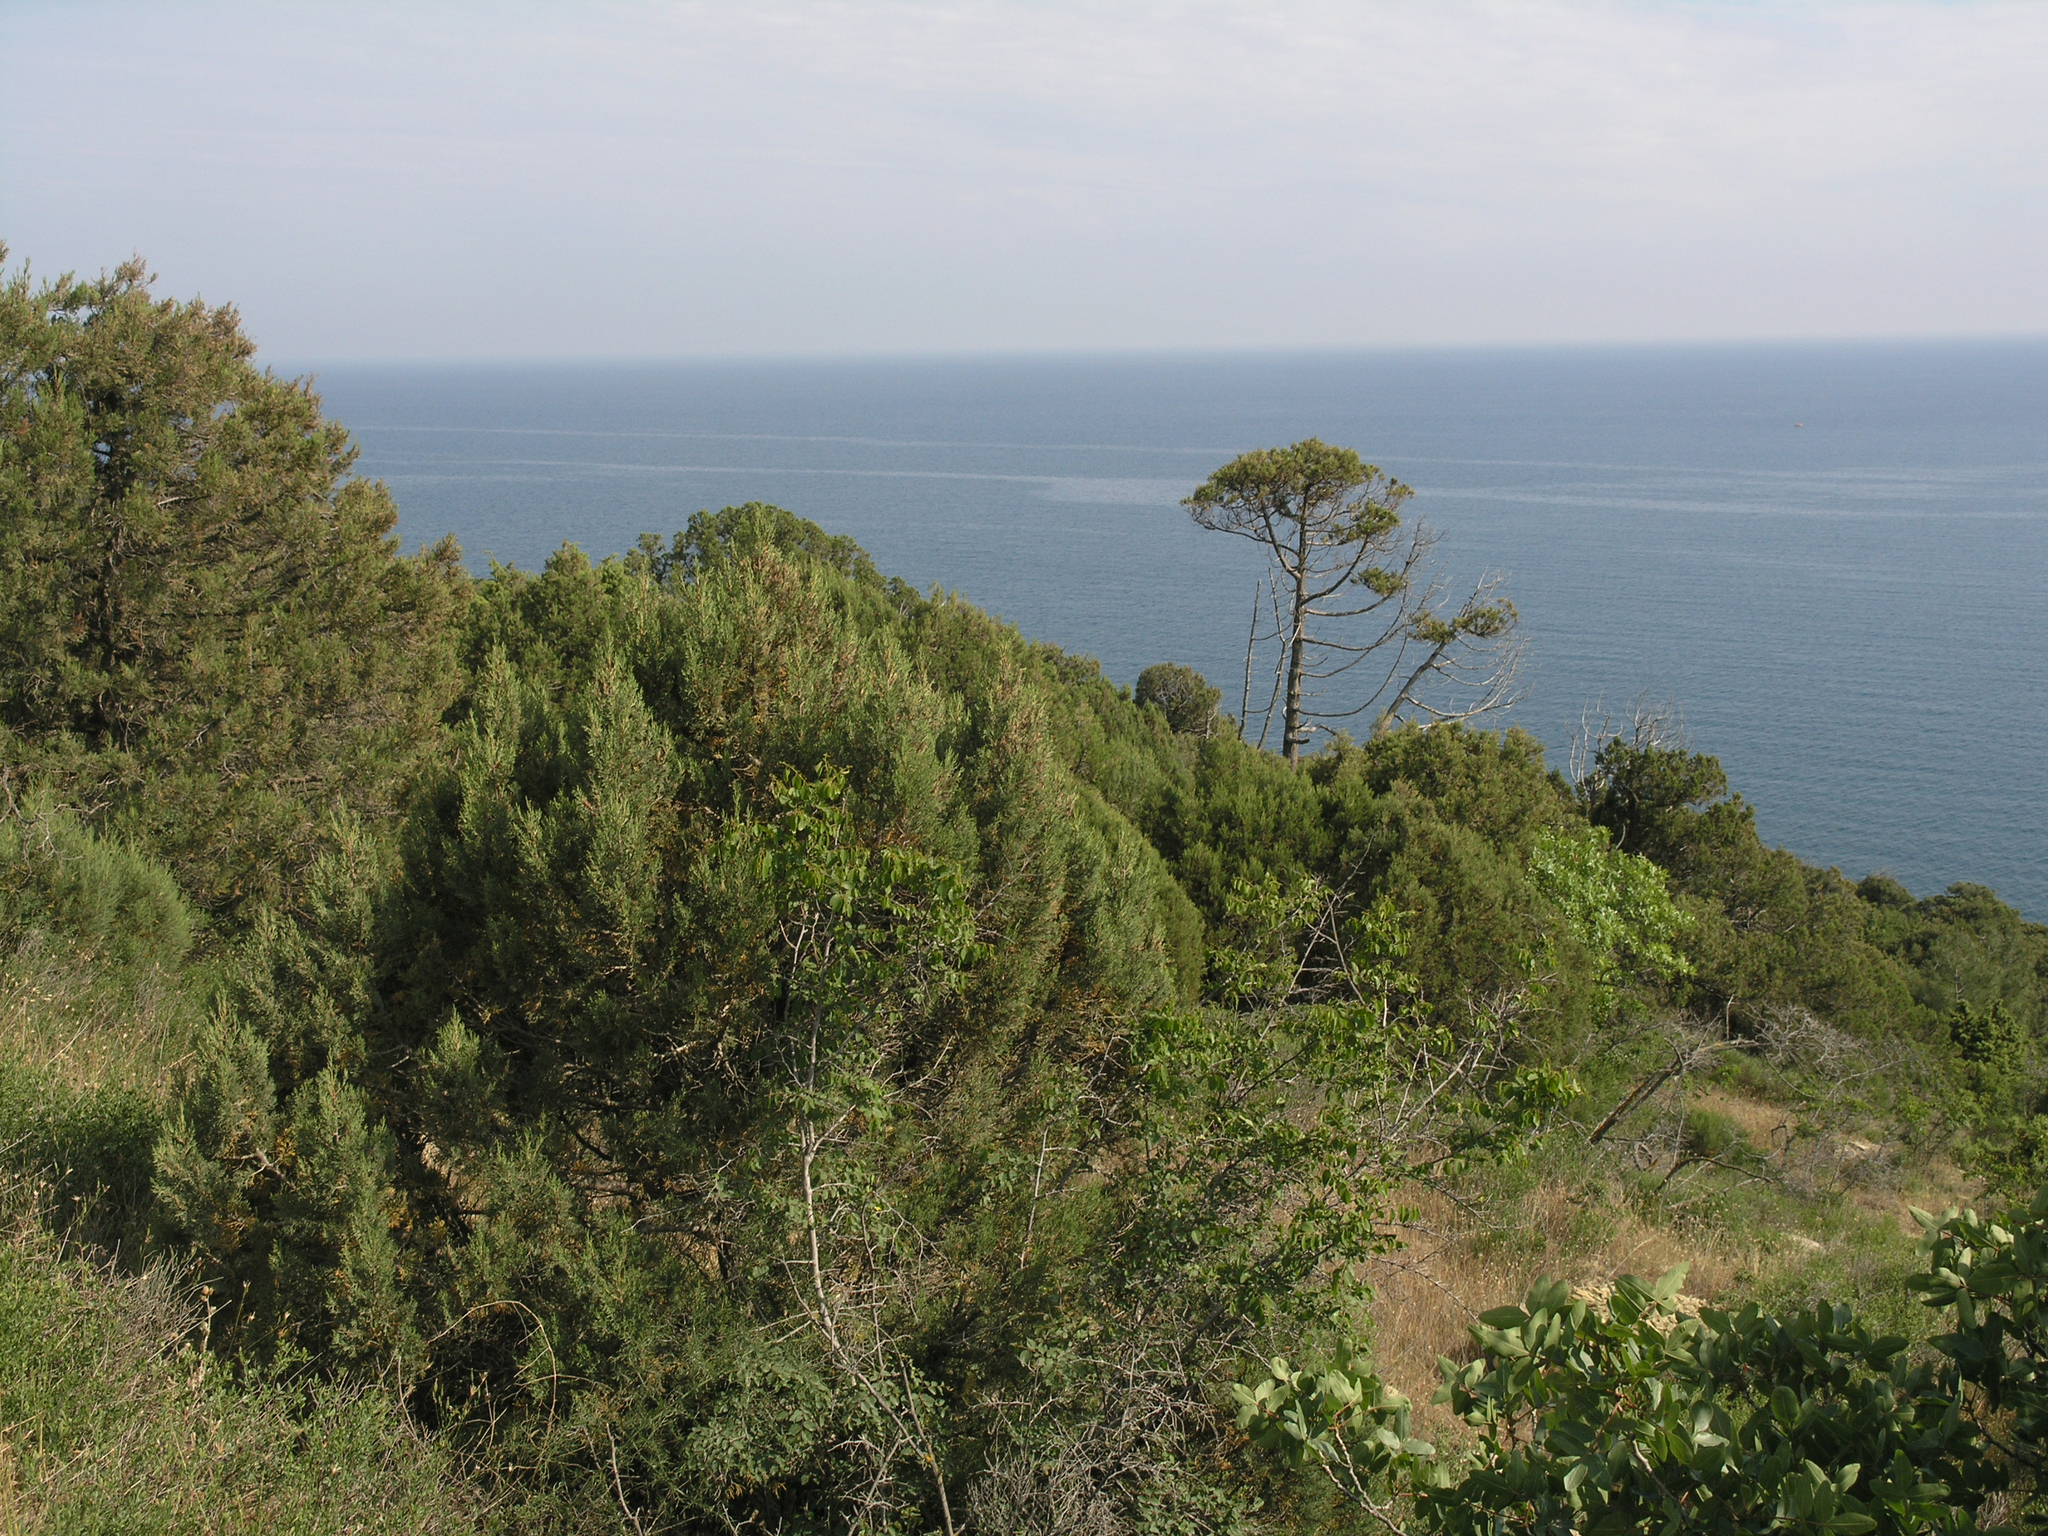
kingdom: Plantae
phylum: Tracheophyta
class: Pinopsida
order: Pinales
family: Cupressaceae
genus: Juniperus
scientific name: Juniperus excelsa
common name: Crimean juniper
